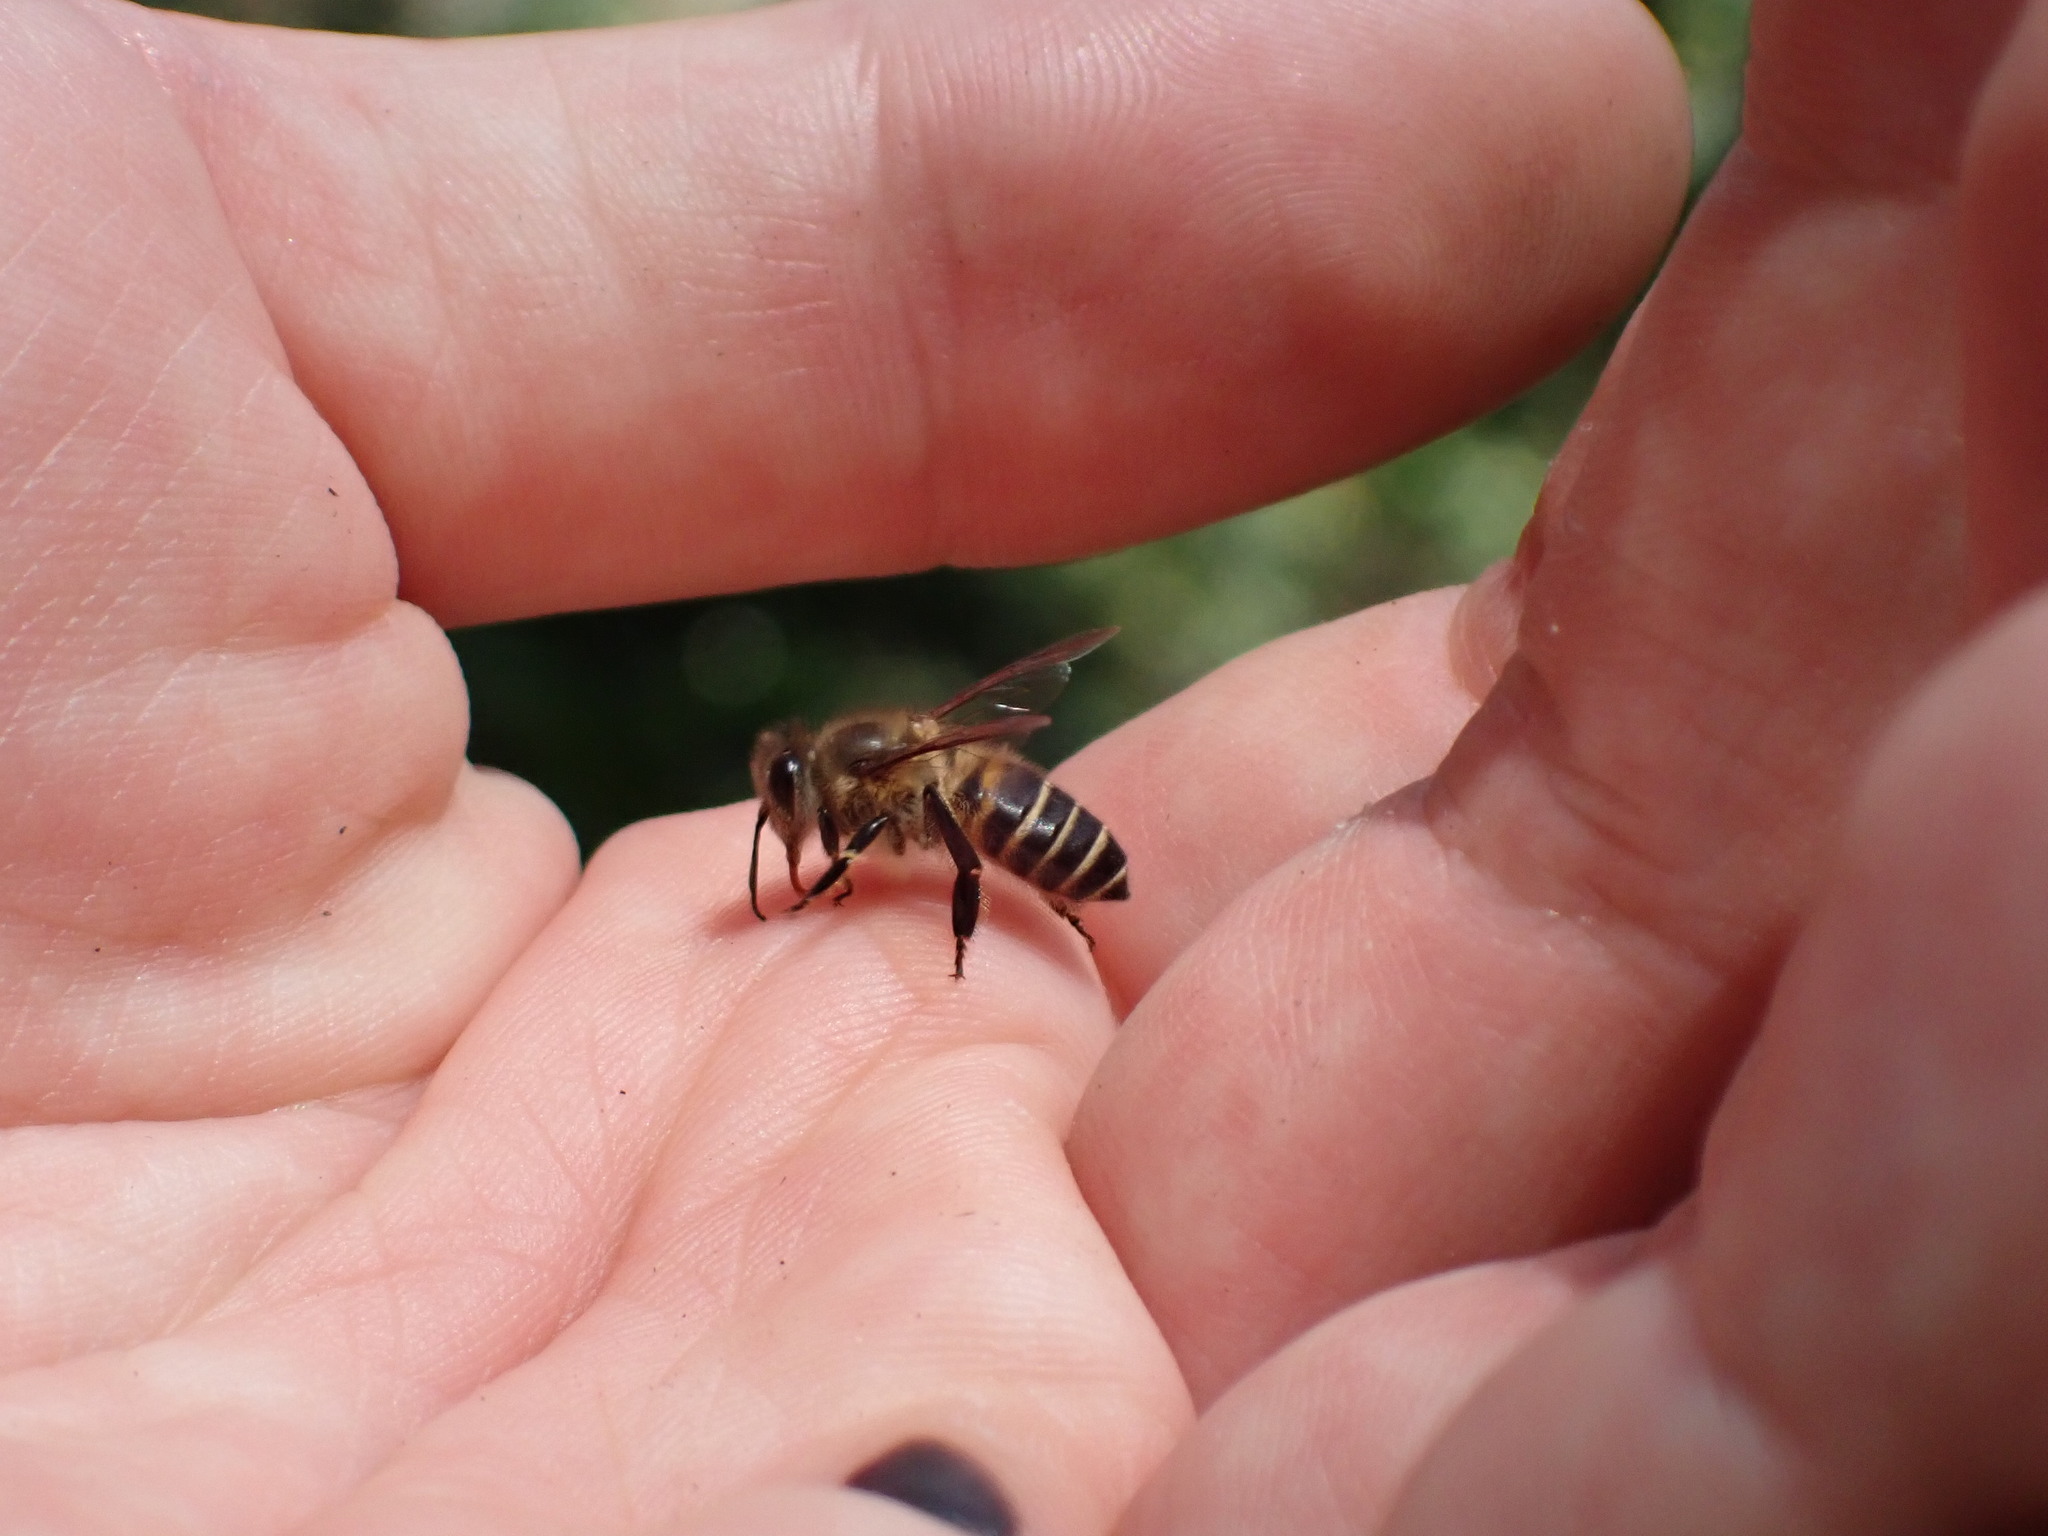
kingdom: Animalia
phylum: Arthropoda
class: Insecta
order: Hymenoptera
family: Apidae
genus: Apis
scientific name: Apis cerana
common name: Honey bee
